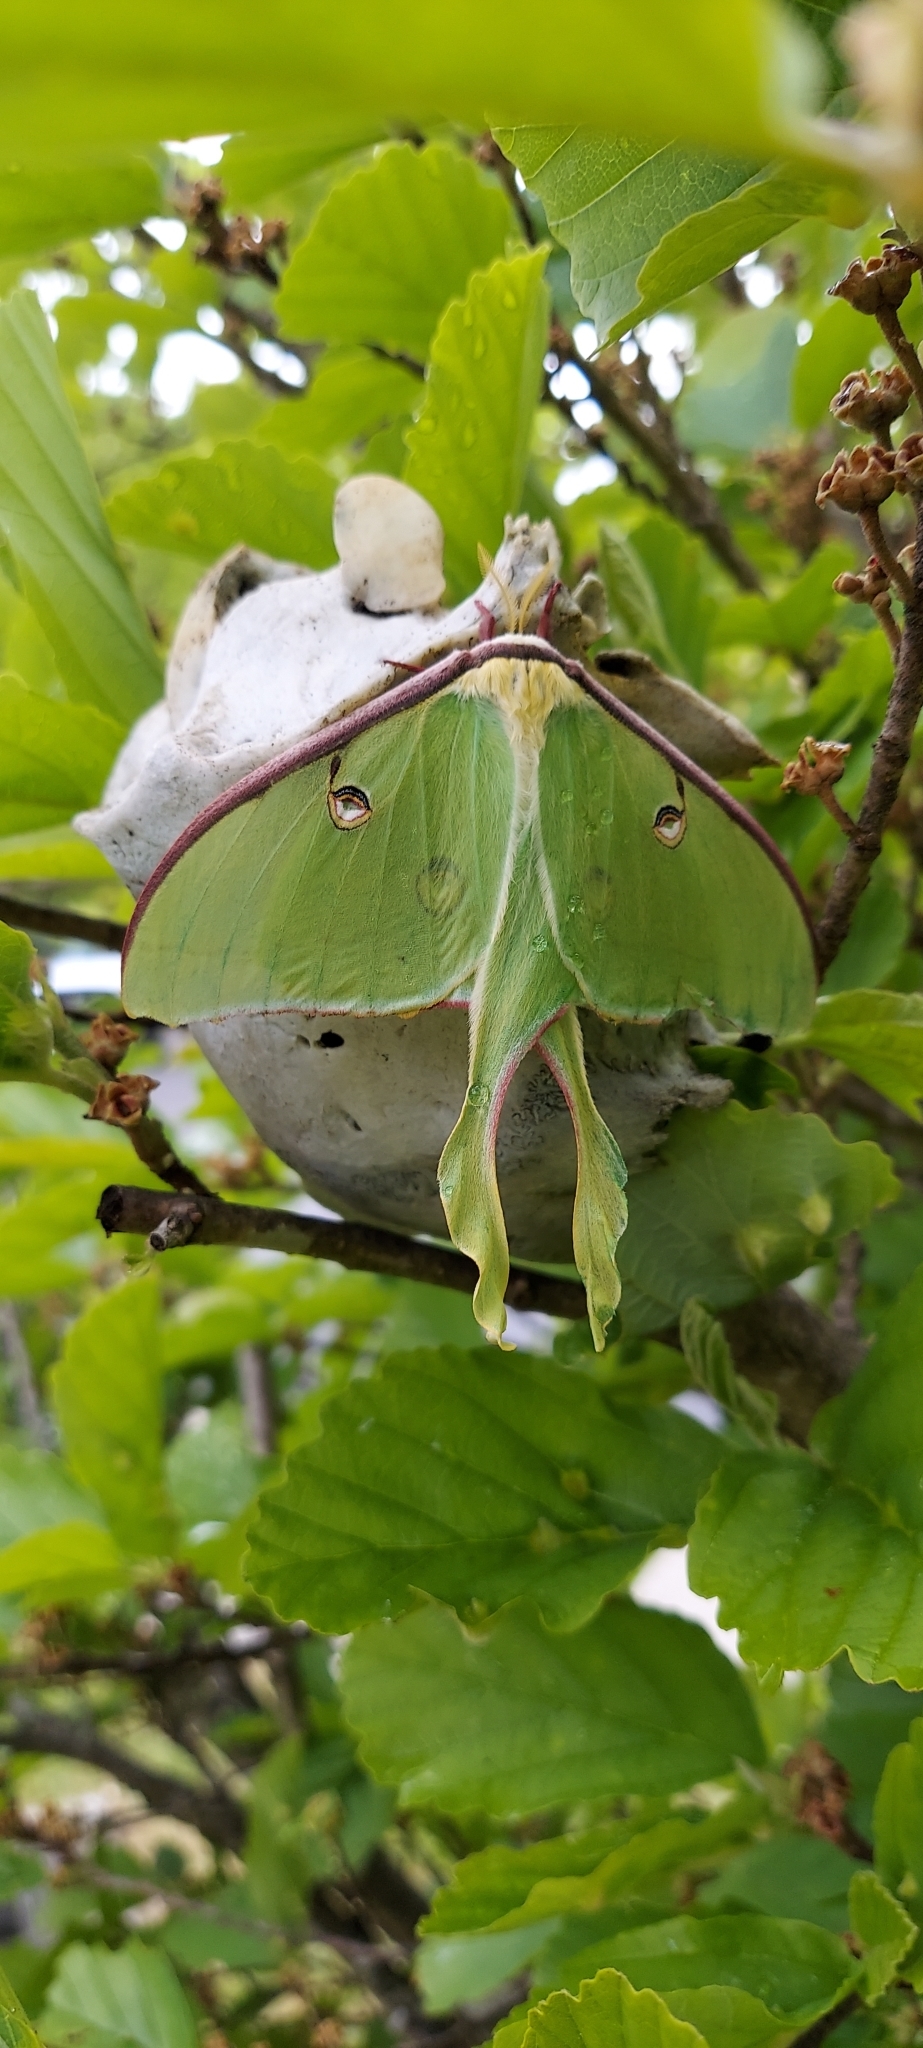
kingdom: Animalia
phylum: Arthropoda
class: Insecta
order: Lepidoptera
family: Saturniidae
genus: Actias
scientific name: Actias luna
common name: Luna moth
